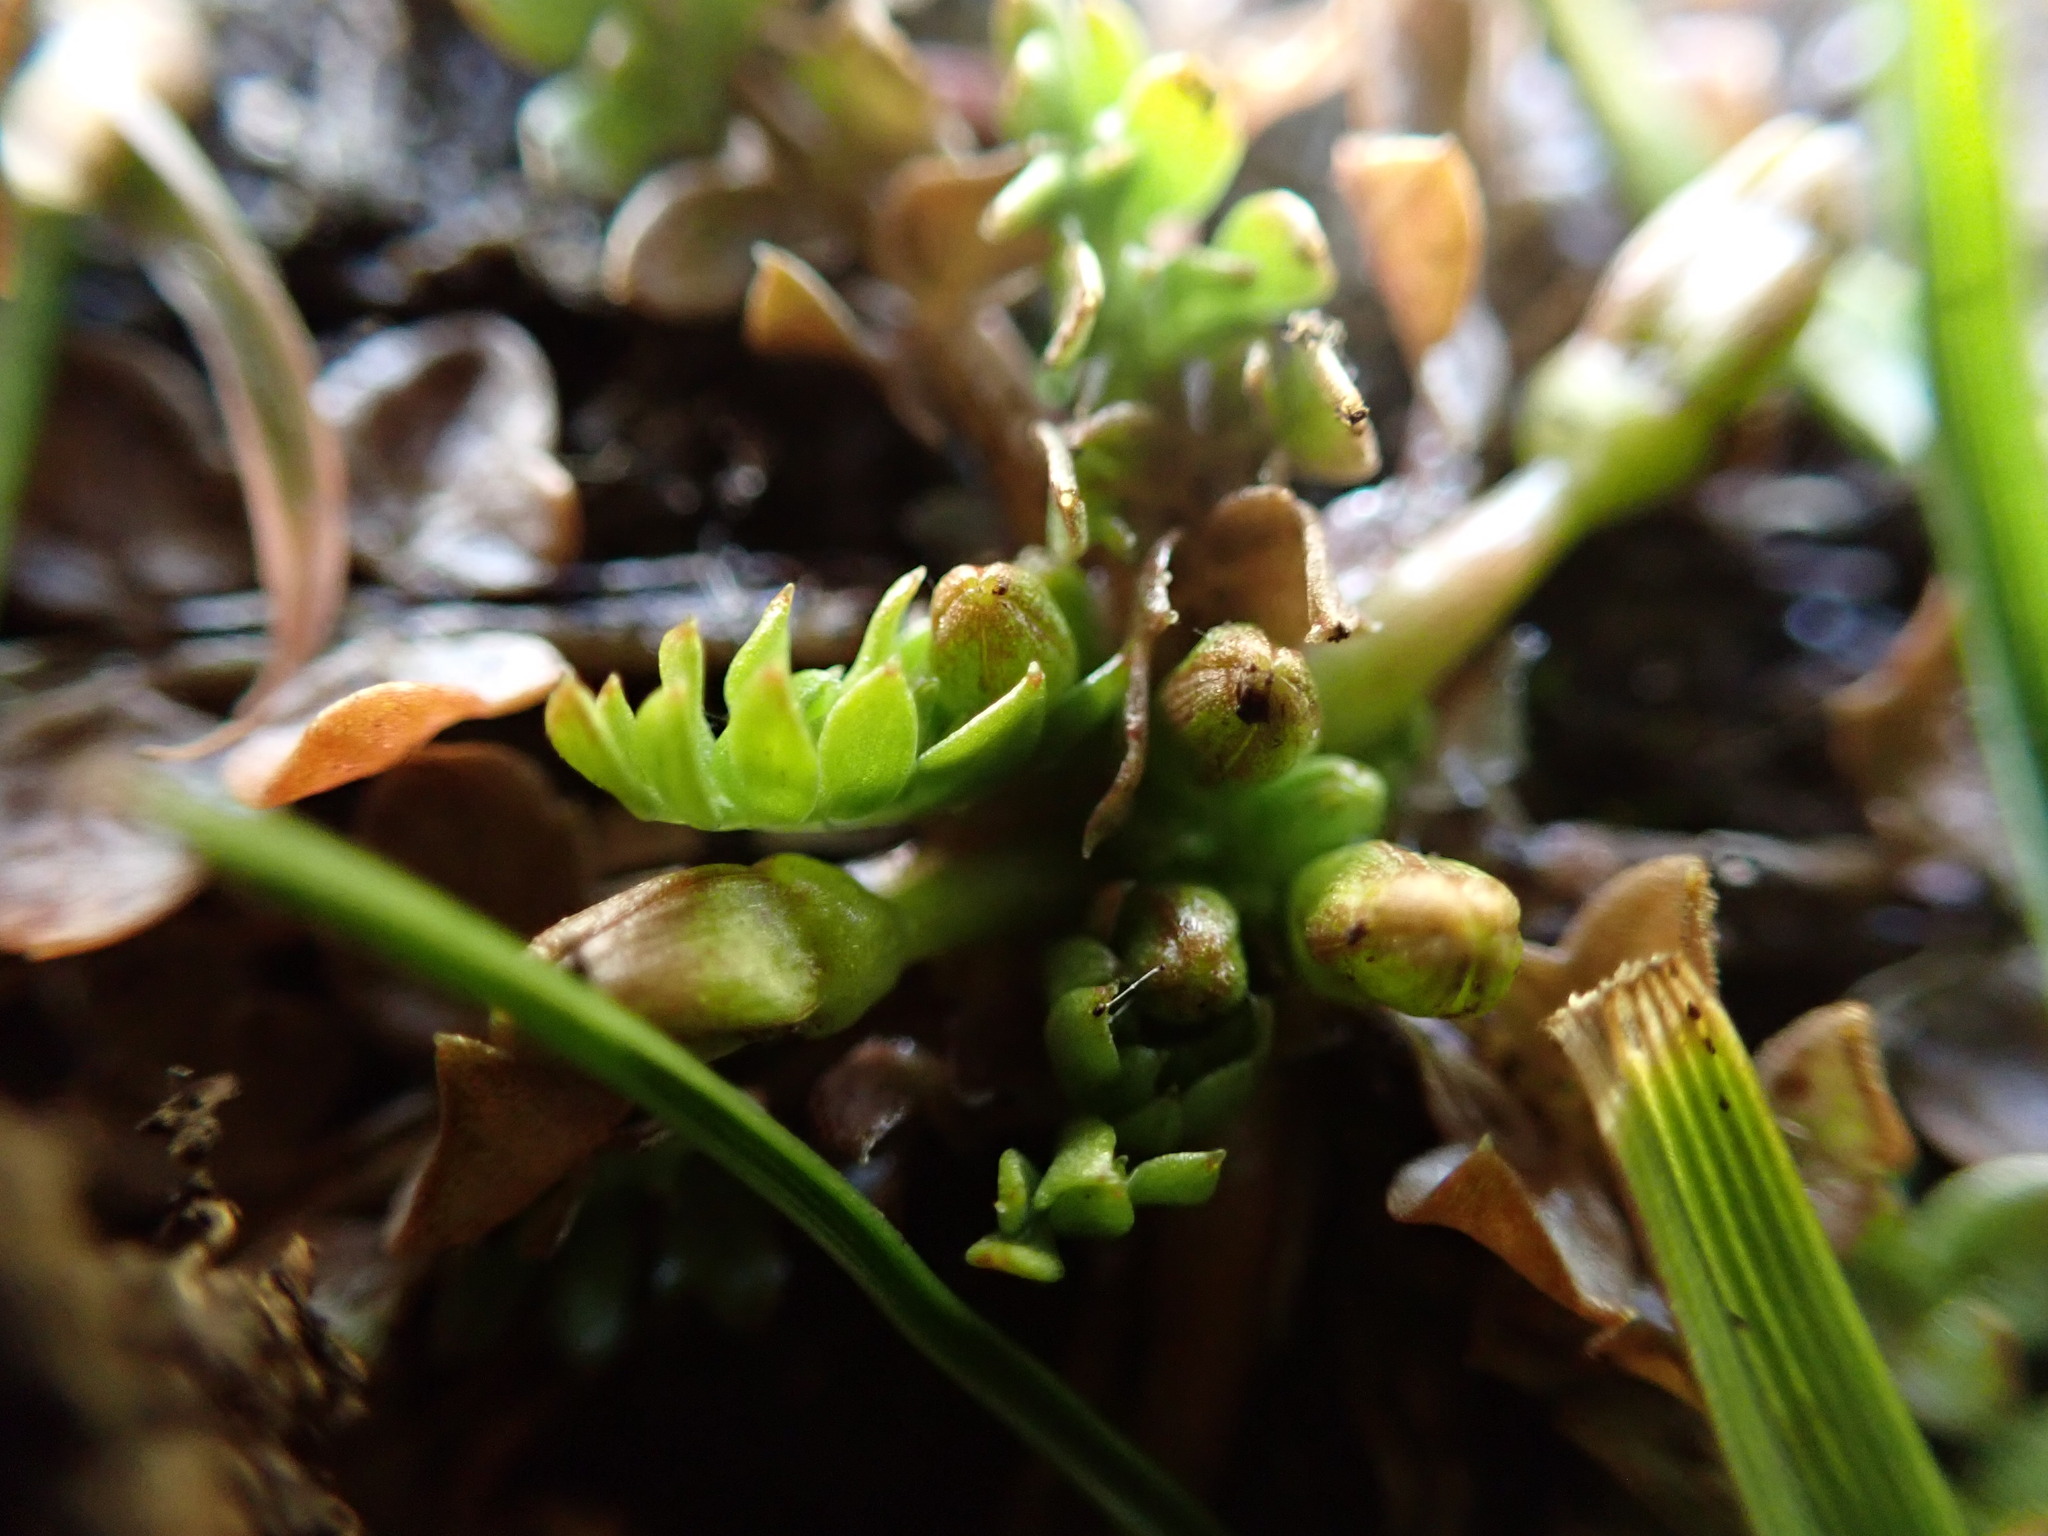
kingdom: Plantae
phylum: Tracheophyta
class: Magnoliopsida
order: Brassicales
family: Limnanthaceae
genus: Limnanthes
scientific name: Limnanthes macounii
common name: Macoun's meadowfoam
